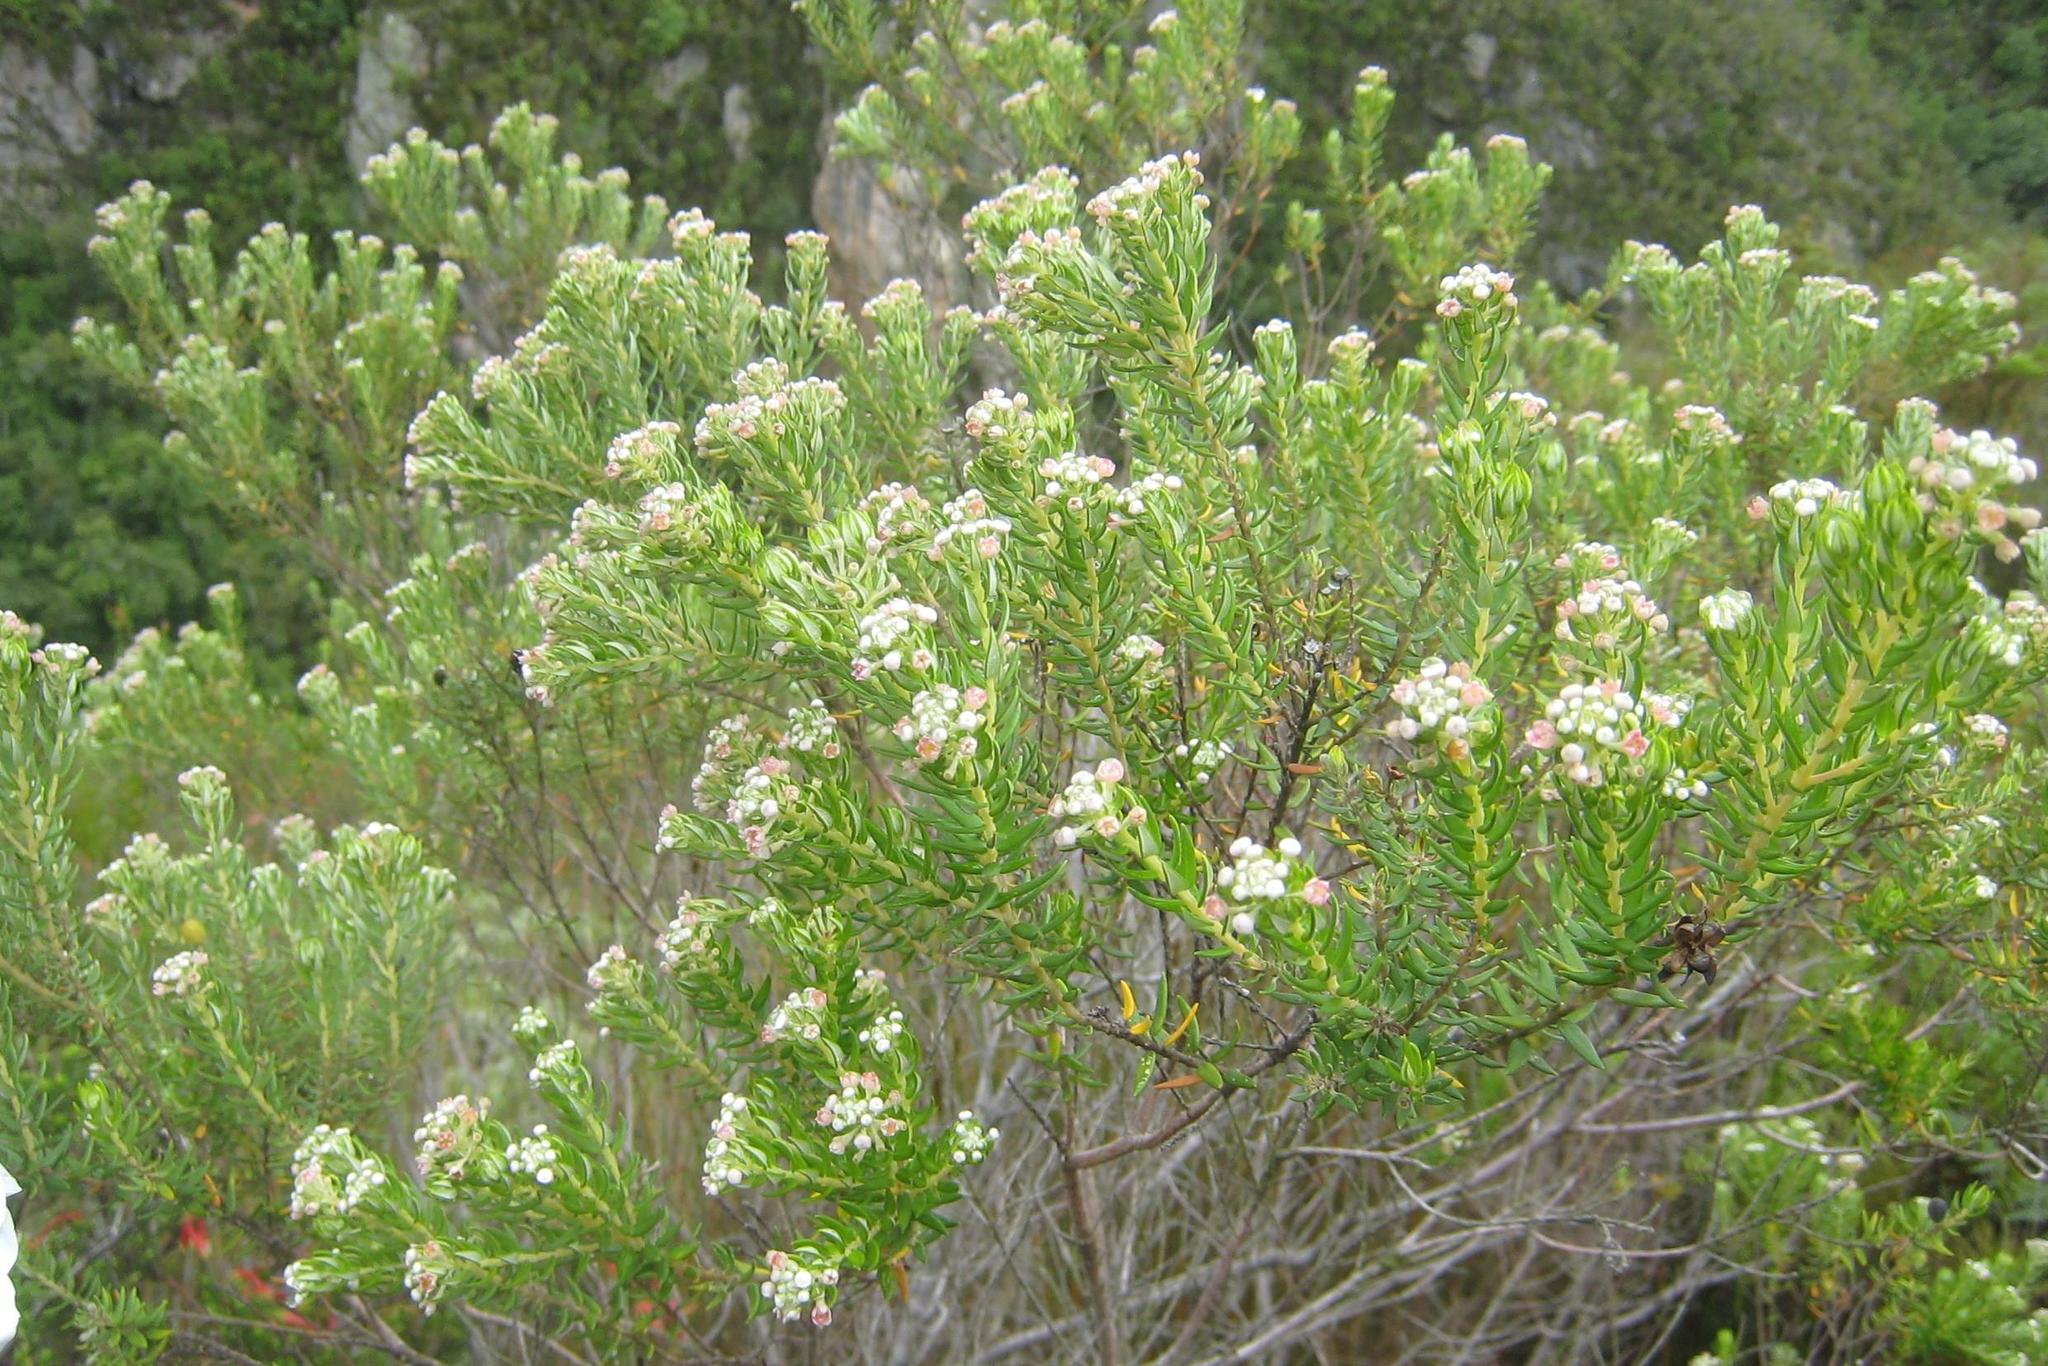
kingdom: Plantae
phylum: Tracheophyta
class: Magnoliopsida
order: Rosales
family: Rhamnaceae
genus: Phylica
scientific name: Phylica pinea
